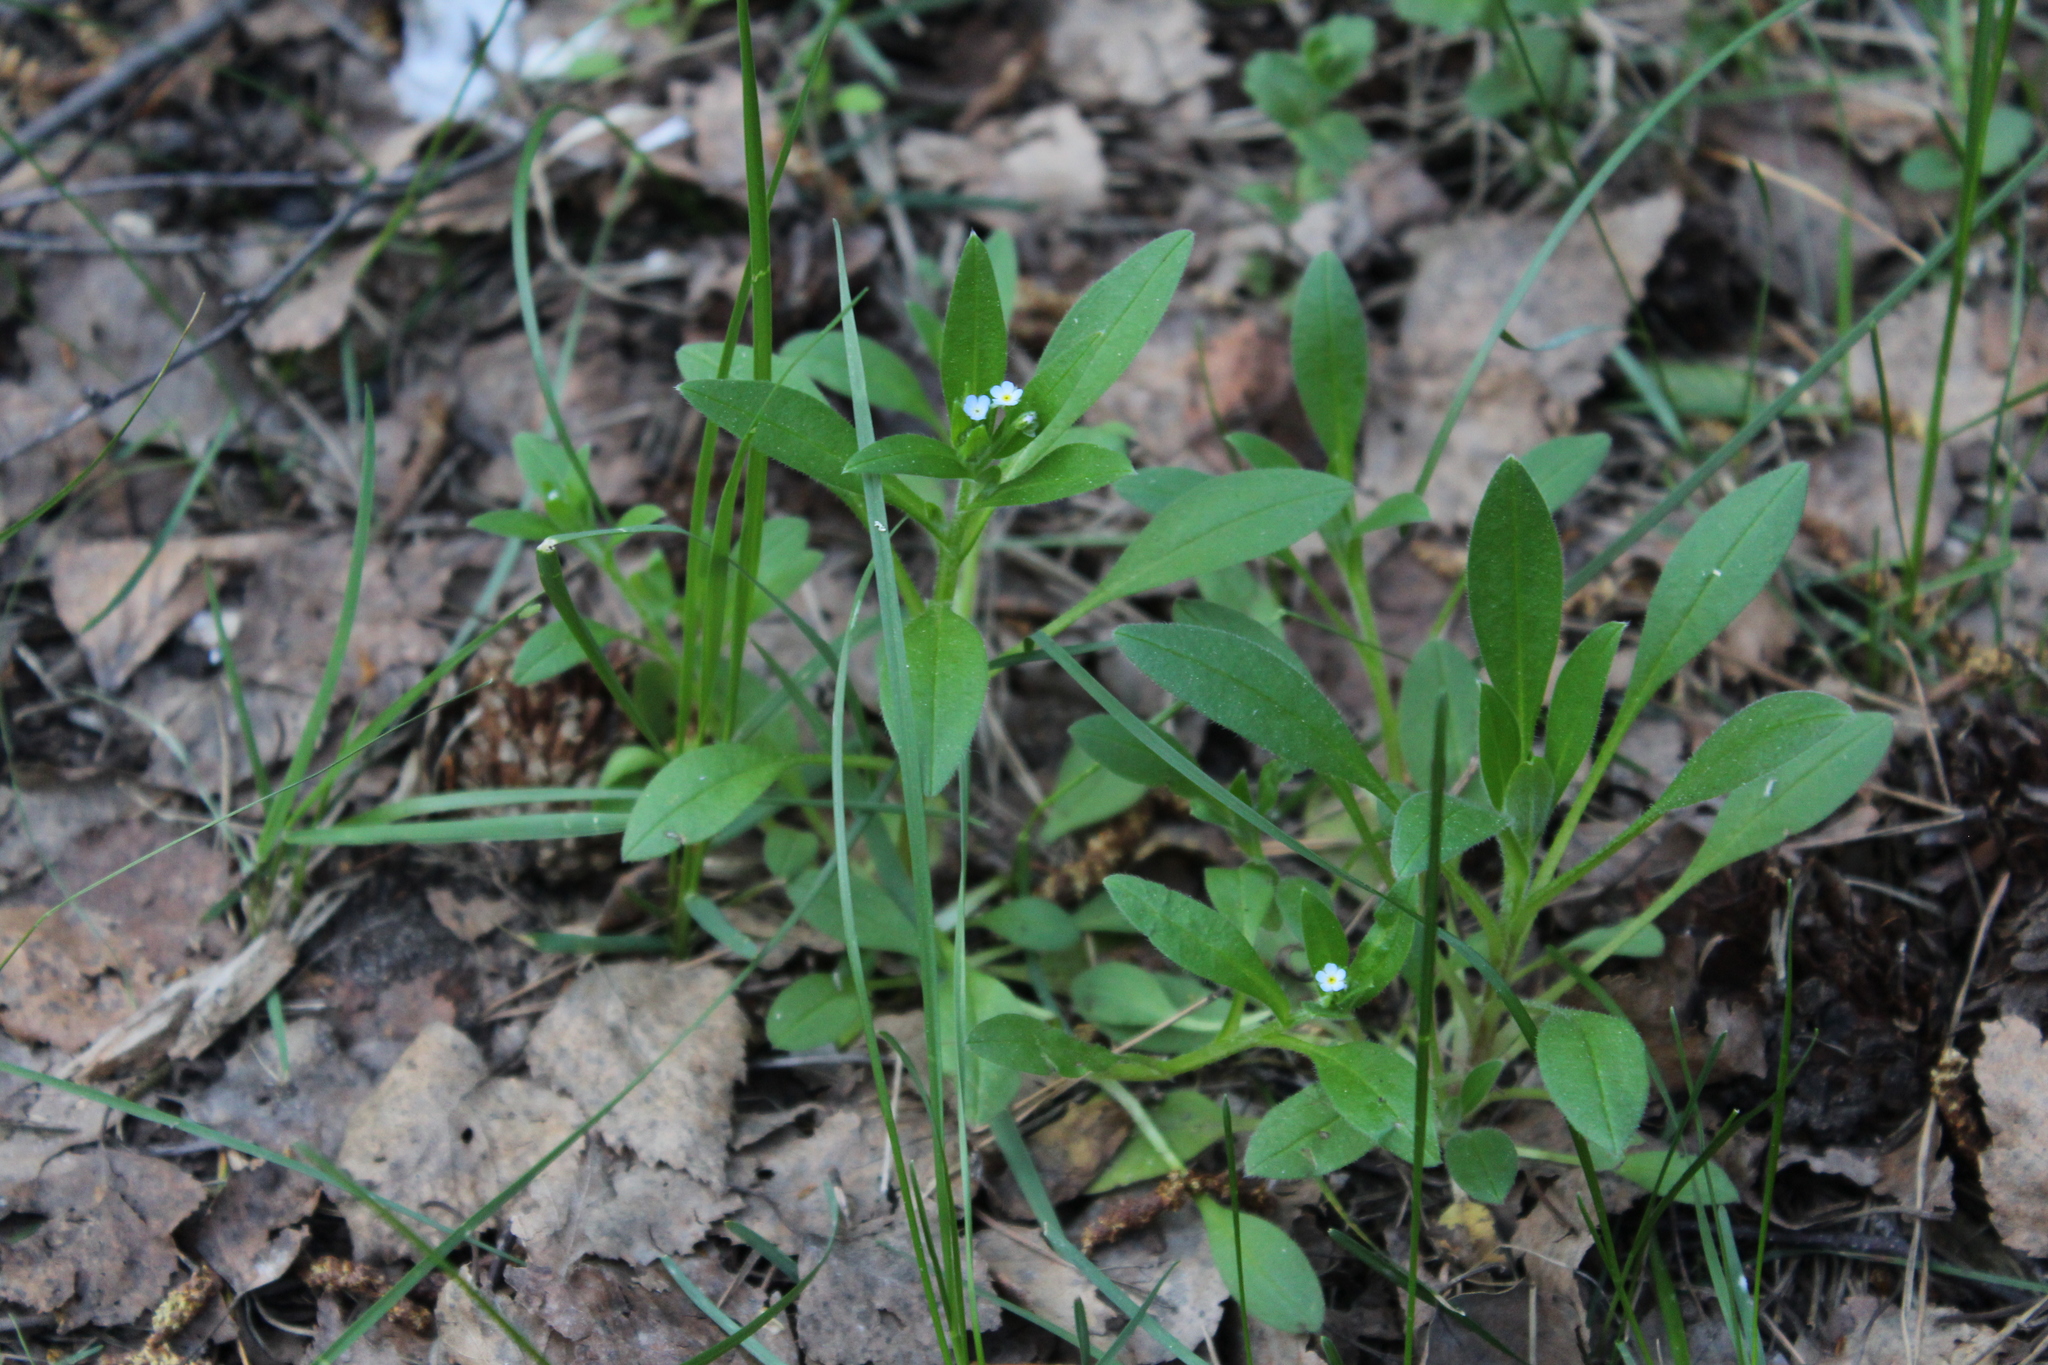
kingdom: Plantae
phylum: Tracheophyta
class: Magnoliopsida
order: Boraginales
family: Boraginaceae
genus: Myosotis
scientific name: Myosotis sparsiflora
